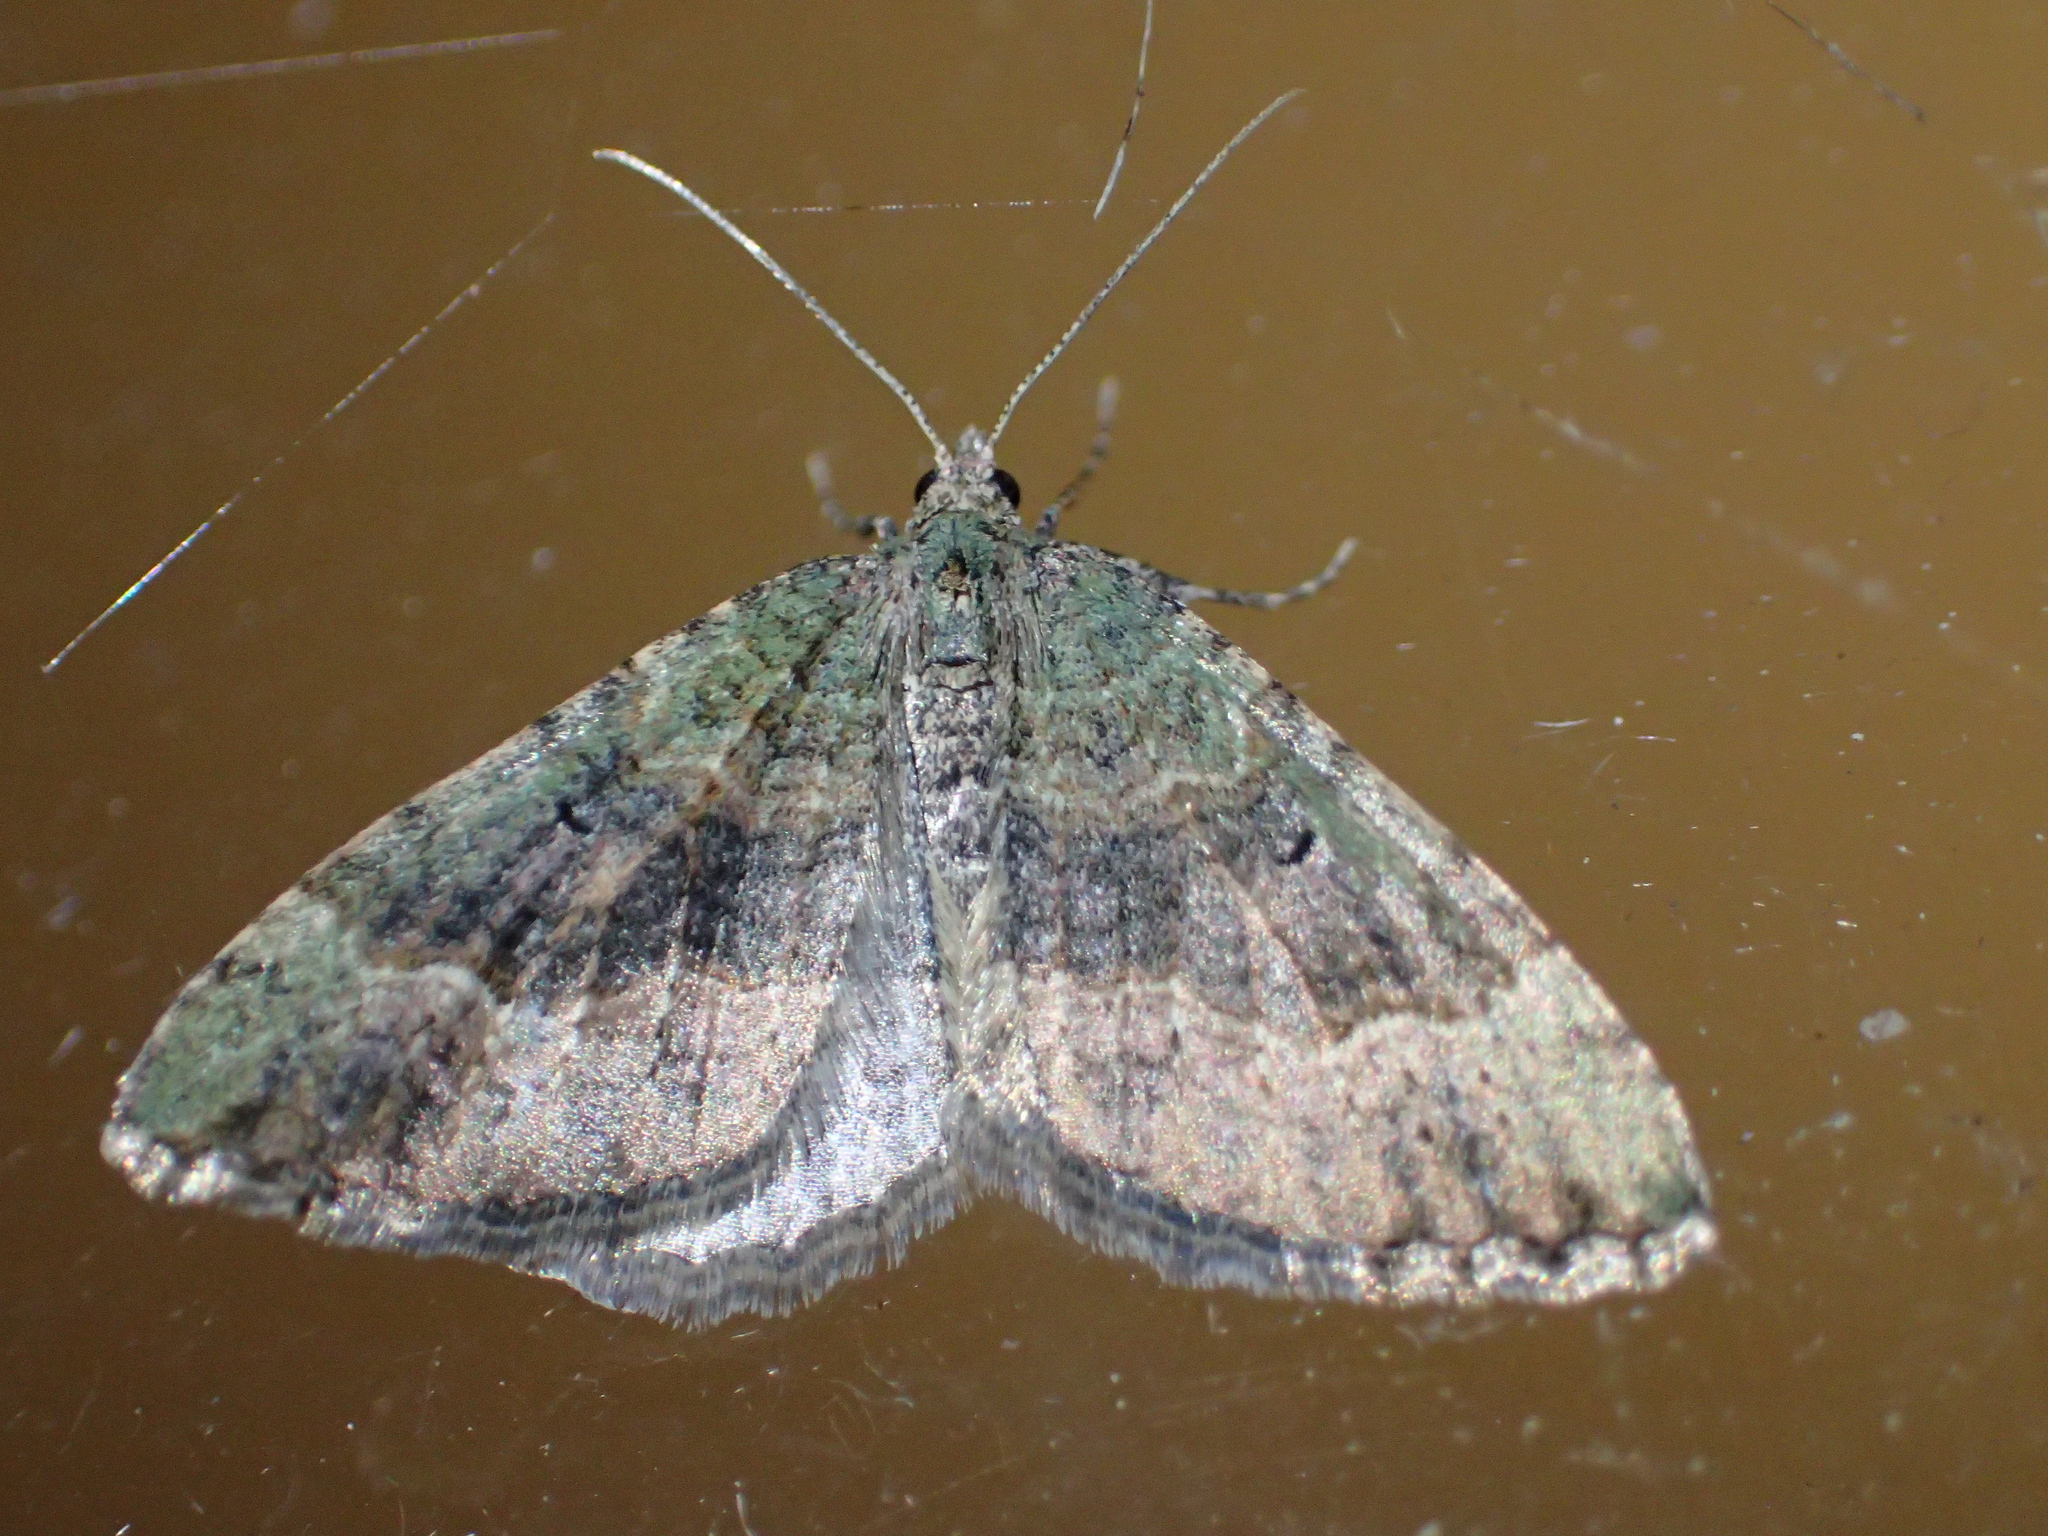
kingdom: Animalia
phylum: Arthropoda
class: Insecta
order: Lepidoptera
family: Geometridae
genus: Epyaxa
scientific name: Epyaxa rosearia
